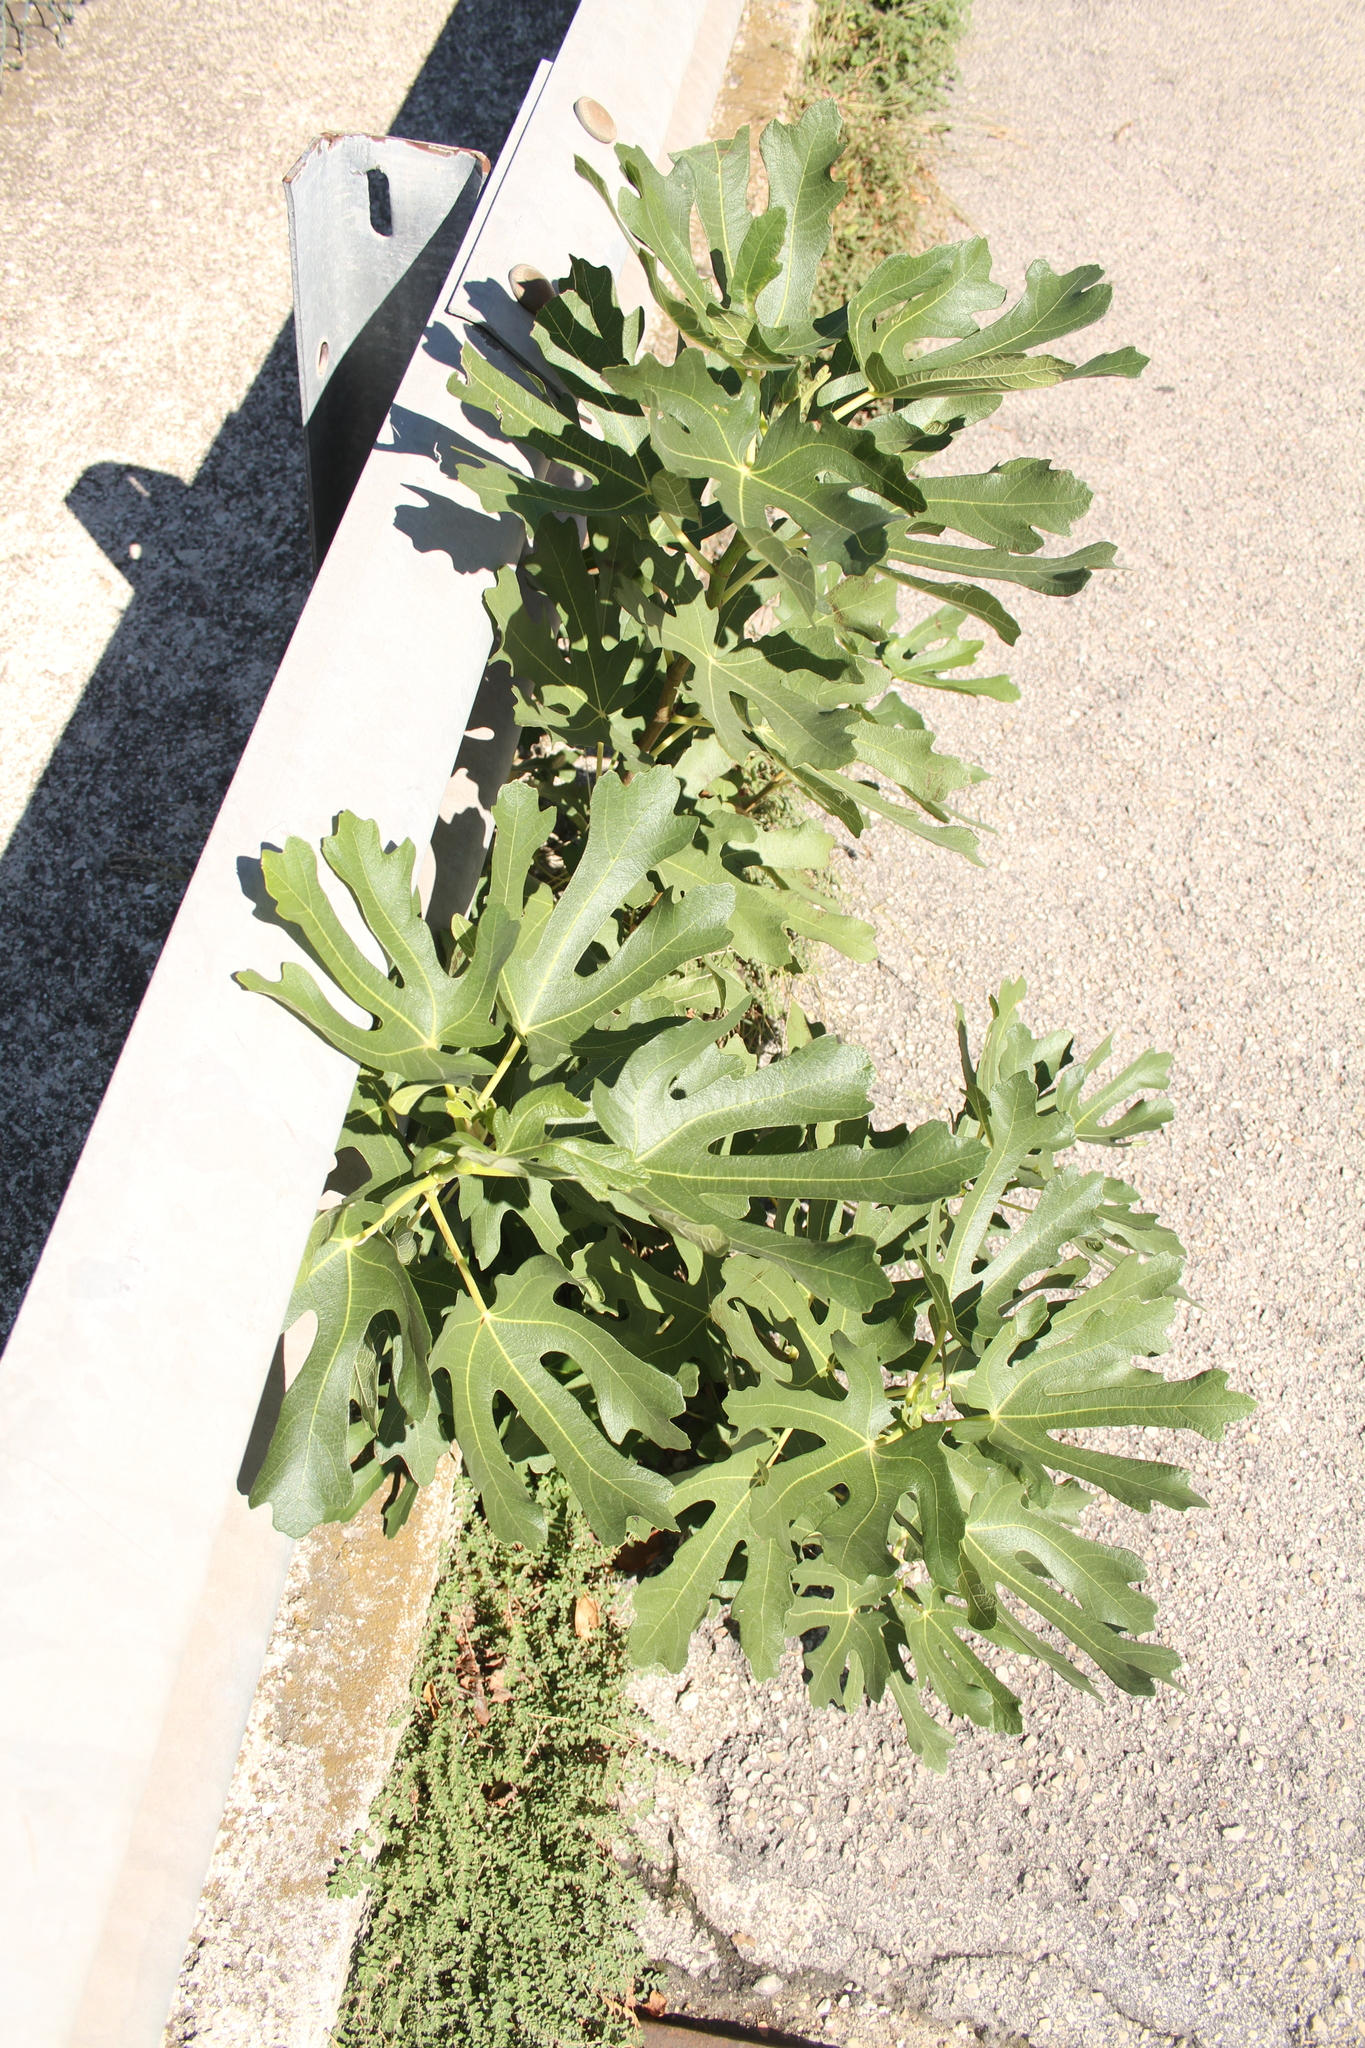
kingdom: Plantae
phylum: Tracheophyta
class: Magnoliopsida
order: Rosales
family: Moraceae
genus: Ficus
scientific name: Ficus carica
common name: Fig
